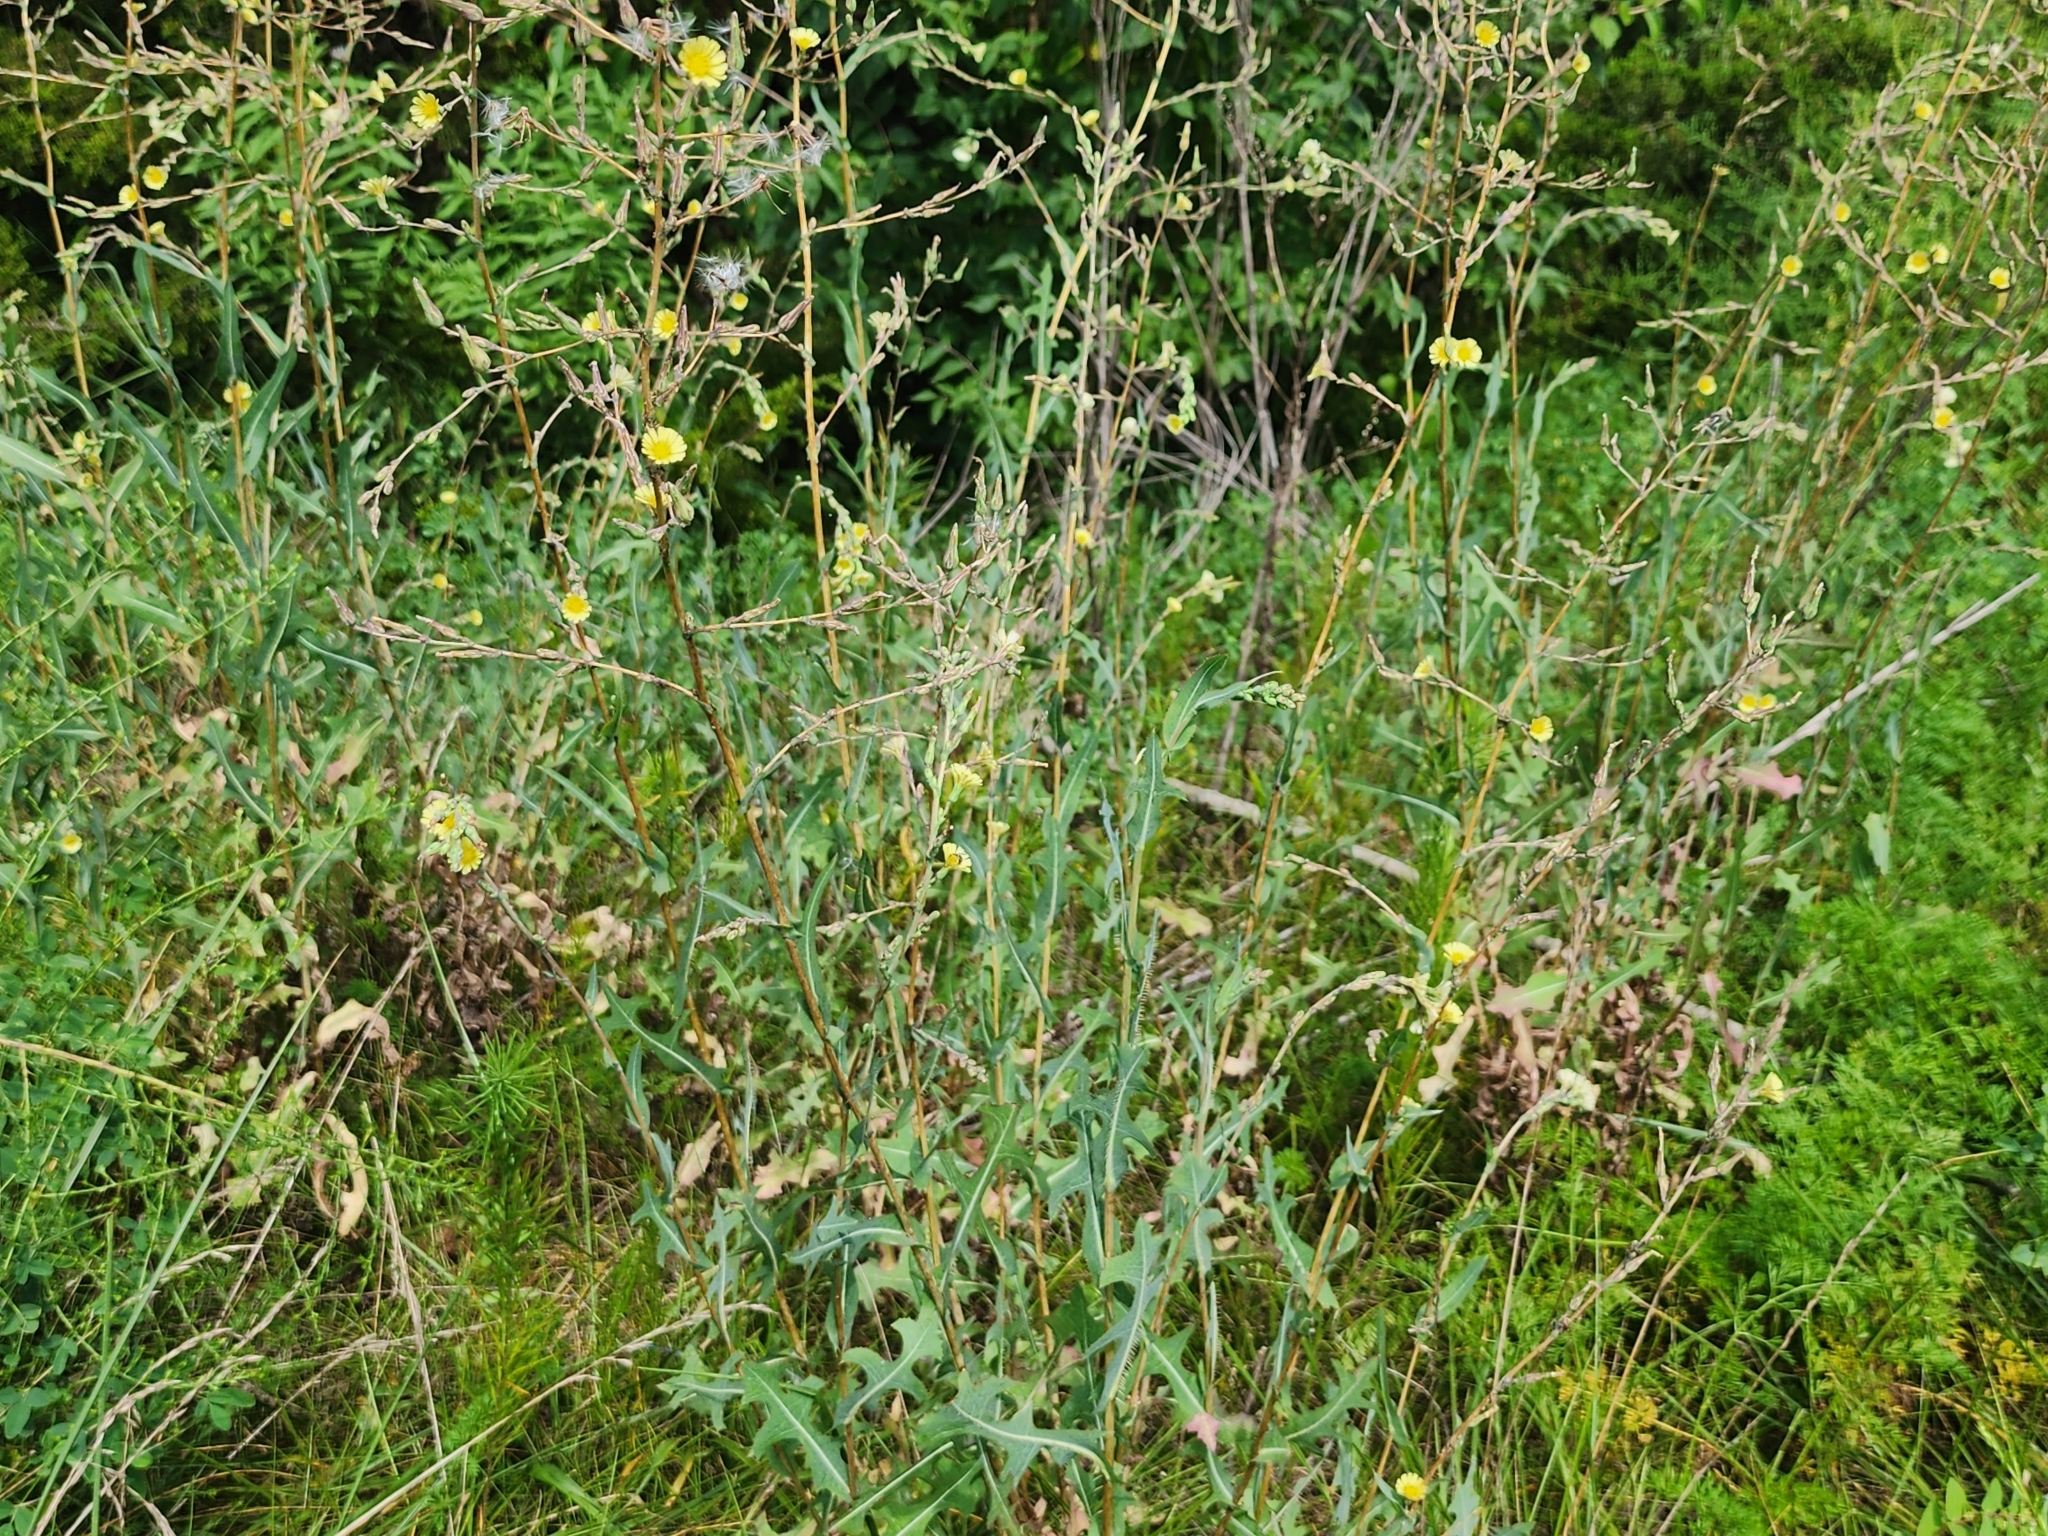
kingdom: Plantae
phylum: Tracheophyta
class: Magnoliopsida
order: Asterales
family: Asteraceae
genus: Lactuca
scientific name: Lactuca serriola
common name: Prickly lettuce
